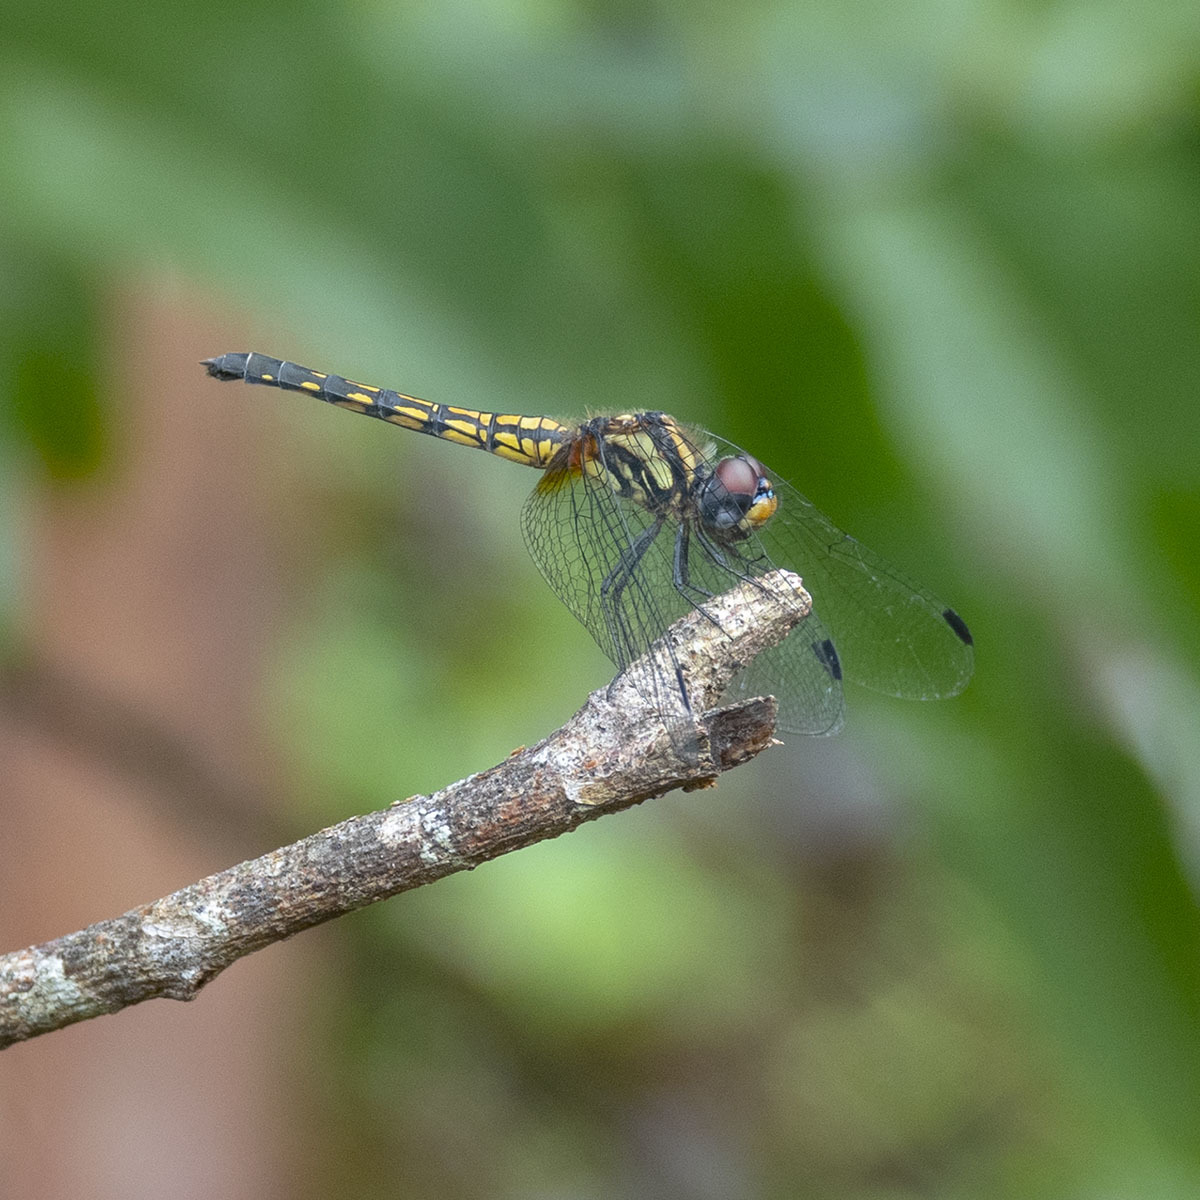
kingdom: Animalia
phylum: Arthropoda
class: Insecta
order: Odonata
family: Libellulidae
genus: Trithemis
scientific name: Trithemis festiva
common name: Indigo dropwing
